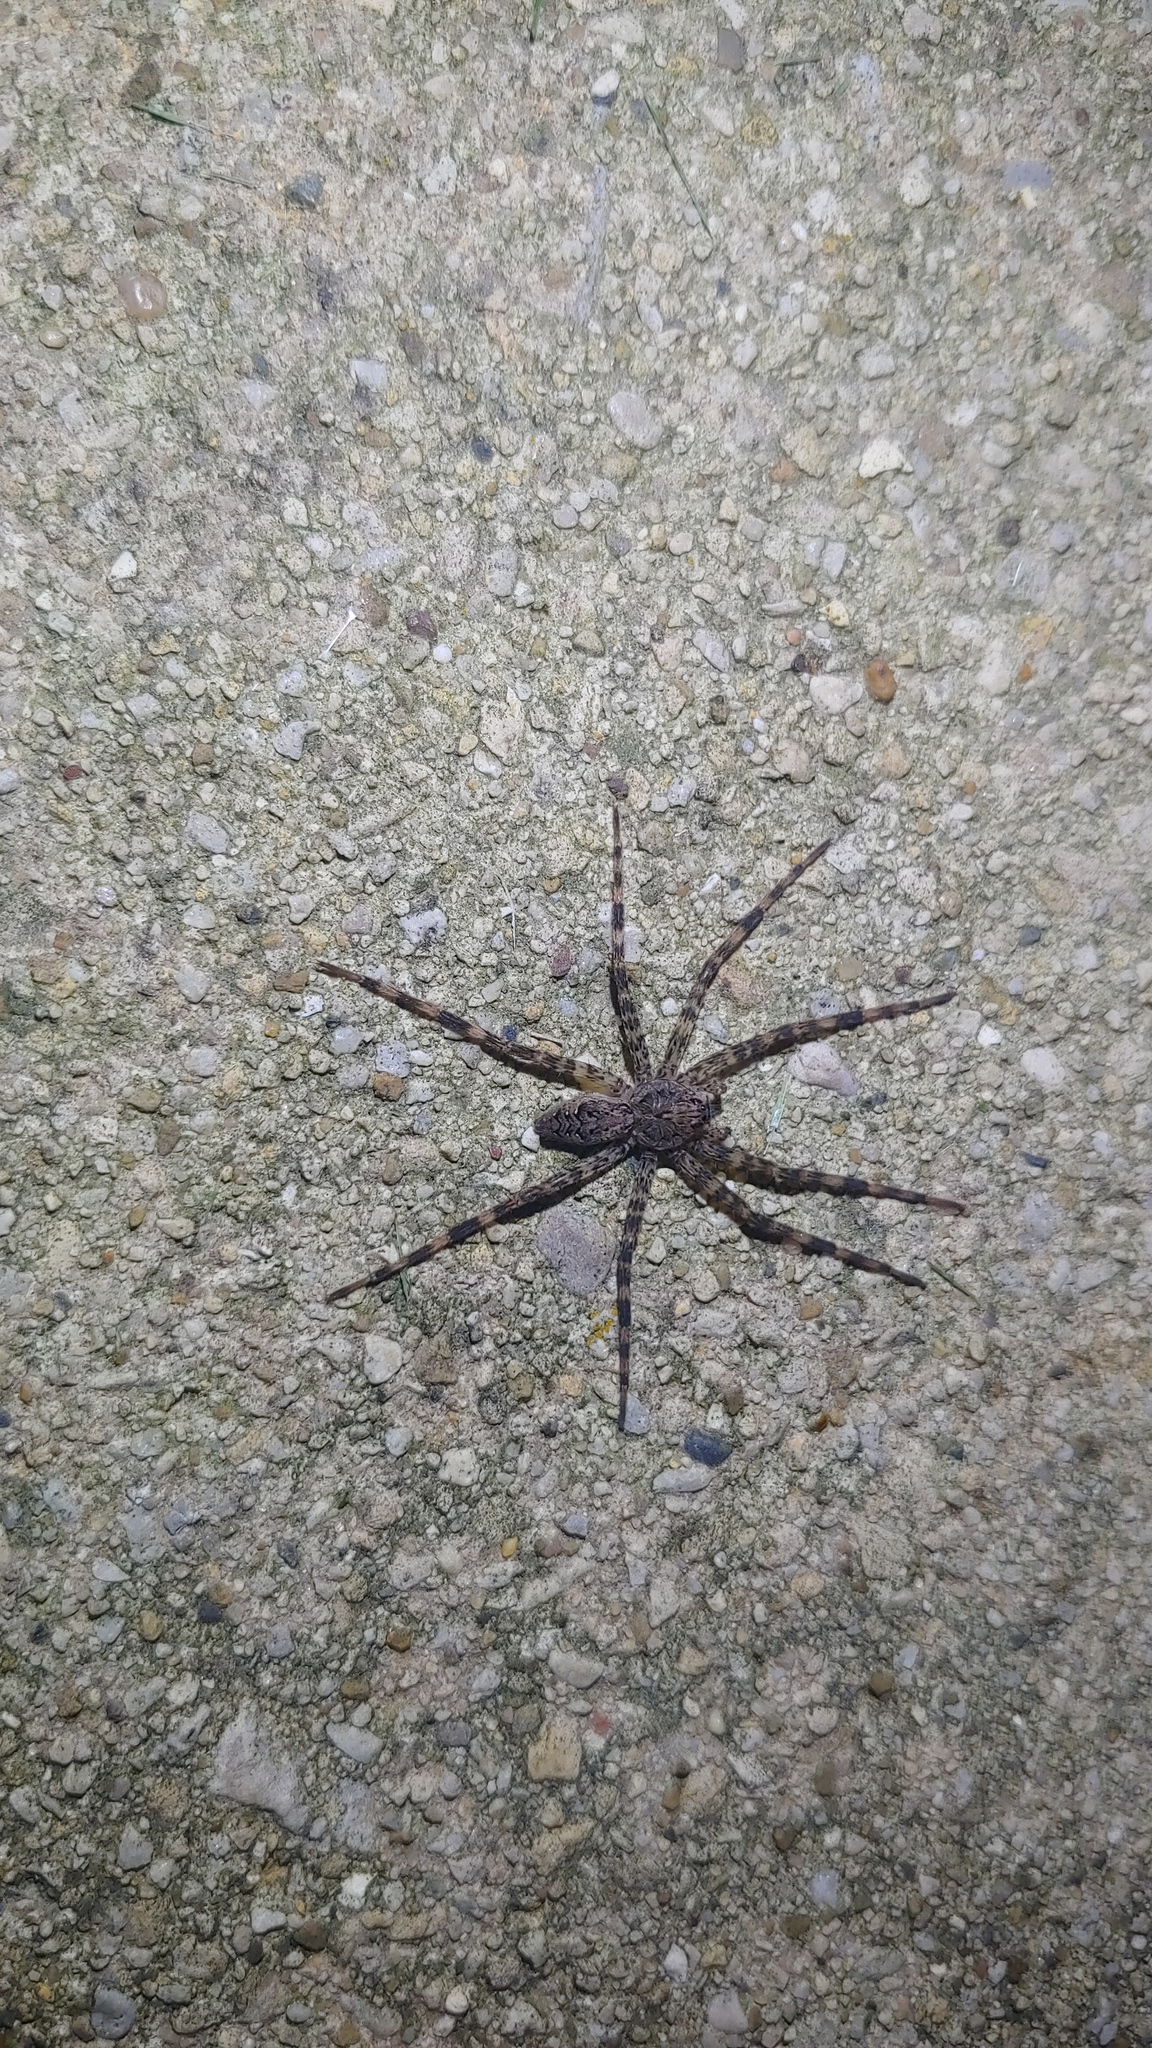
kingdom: Animalia
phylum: Arthropoda
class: Arachnida
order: Araneae
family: Pisauridae
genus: Dolomedes
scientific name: Dolomedes tenebrosus
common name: Dark fishing spider
